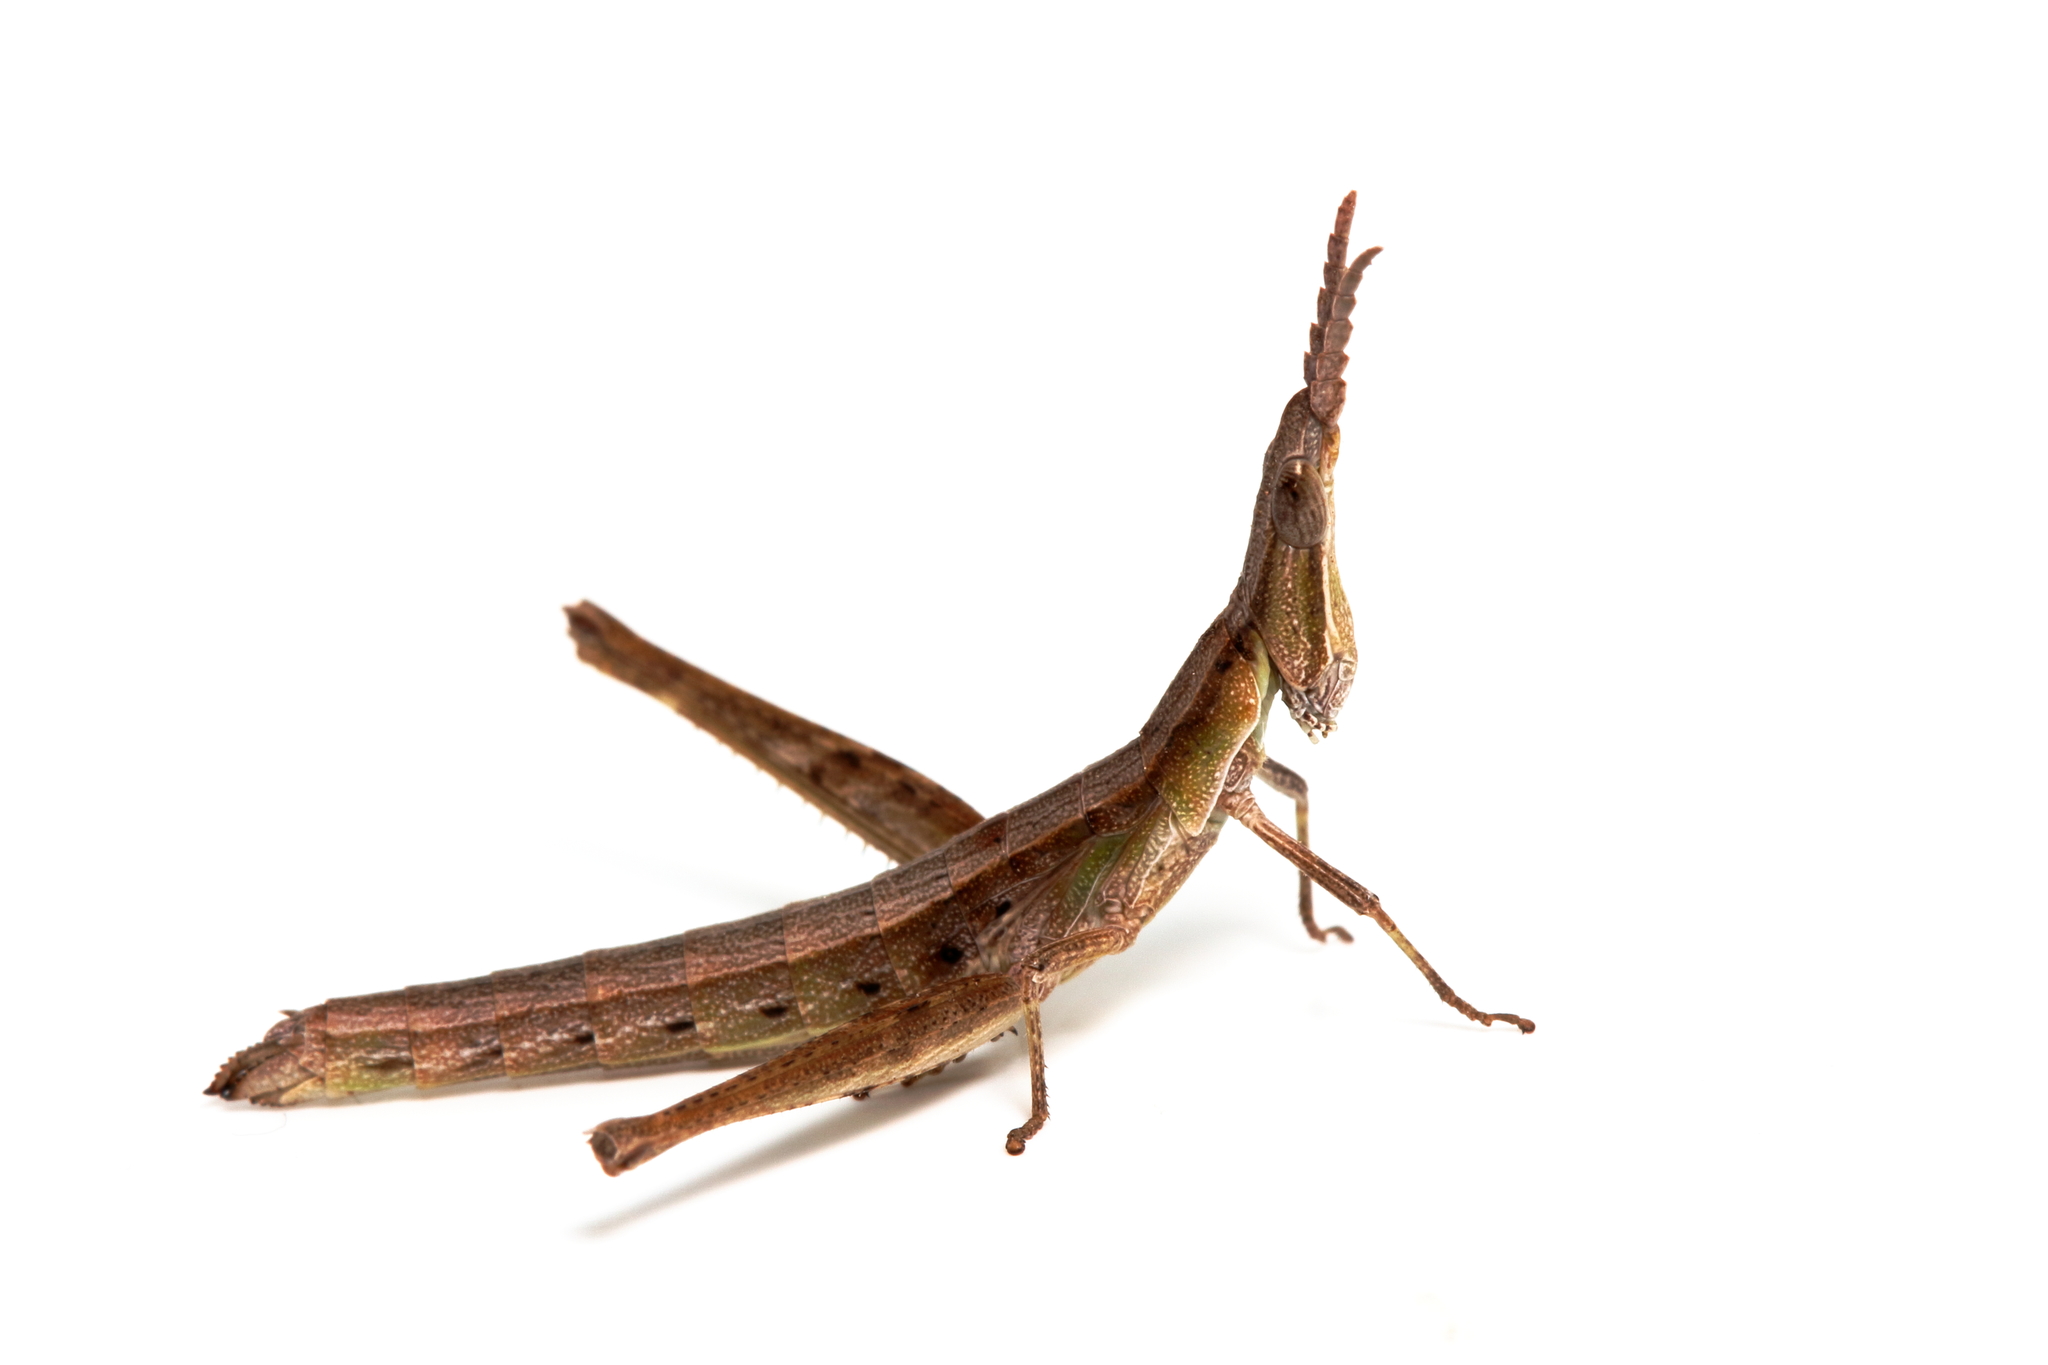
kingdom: Animalia
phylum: Arthropoda
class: Insecta
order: Orthoptera
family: Morabidae
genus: Keyacris
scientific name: Keyacris scurra
